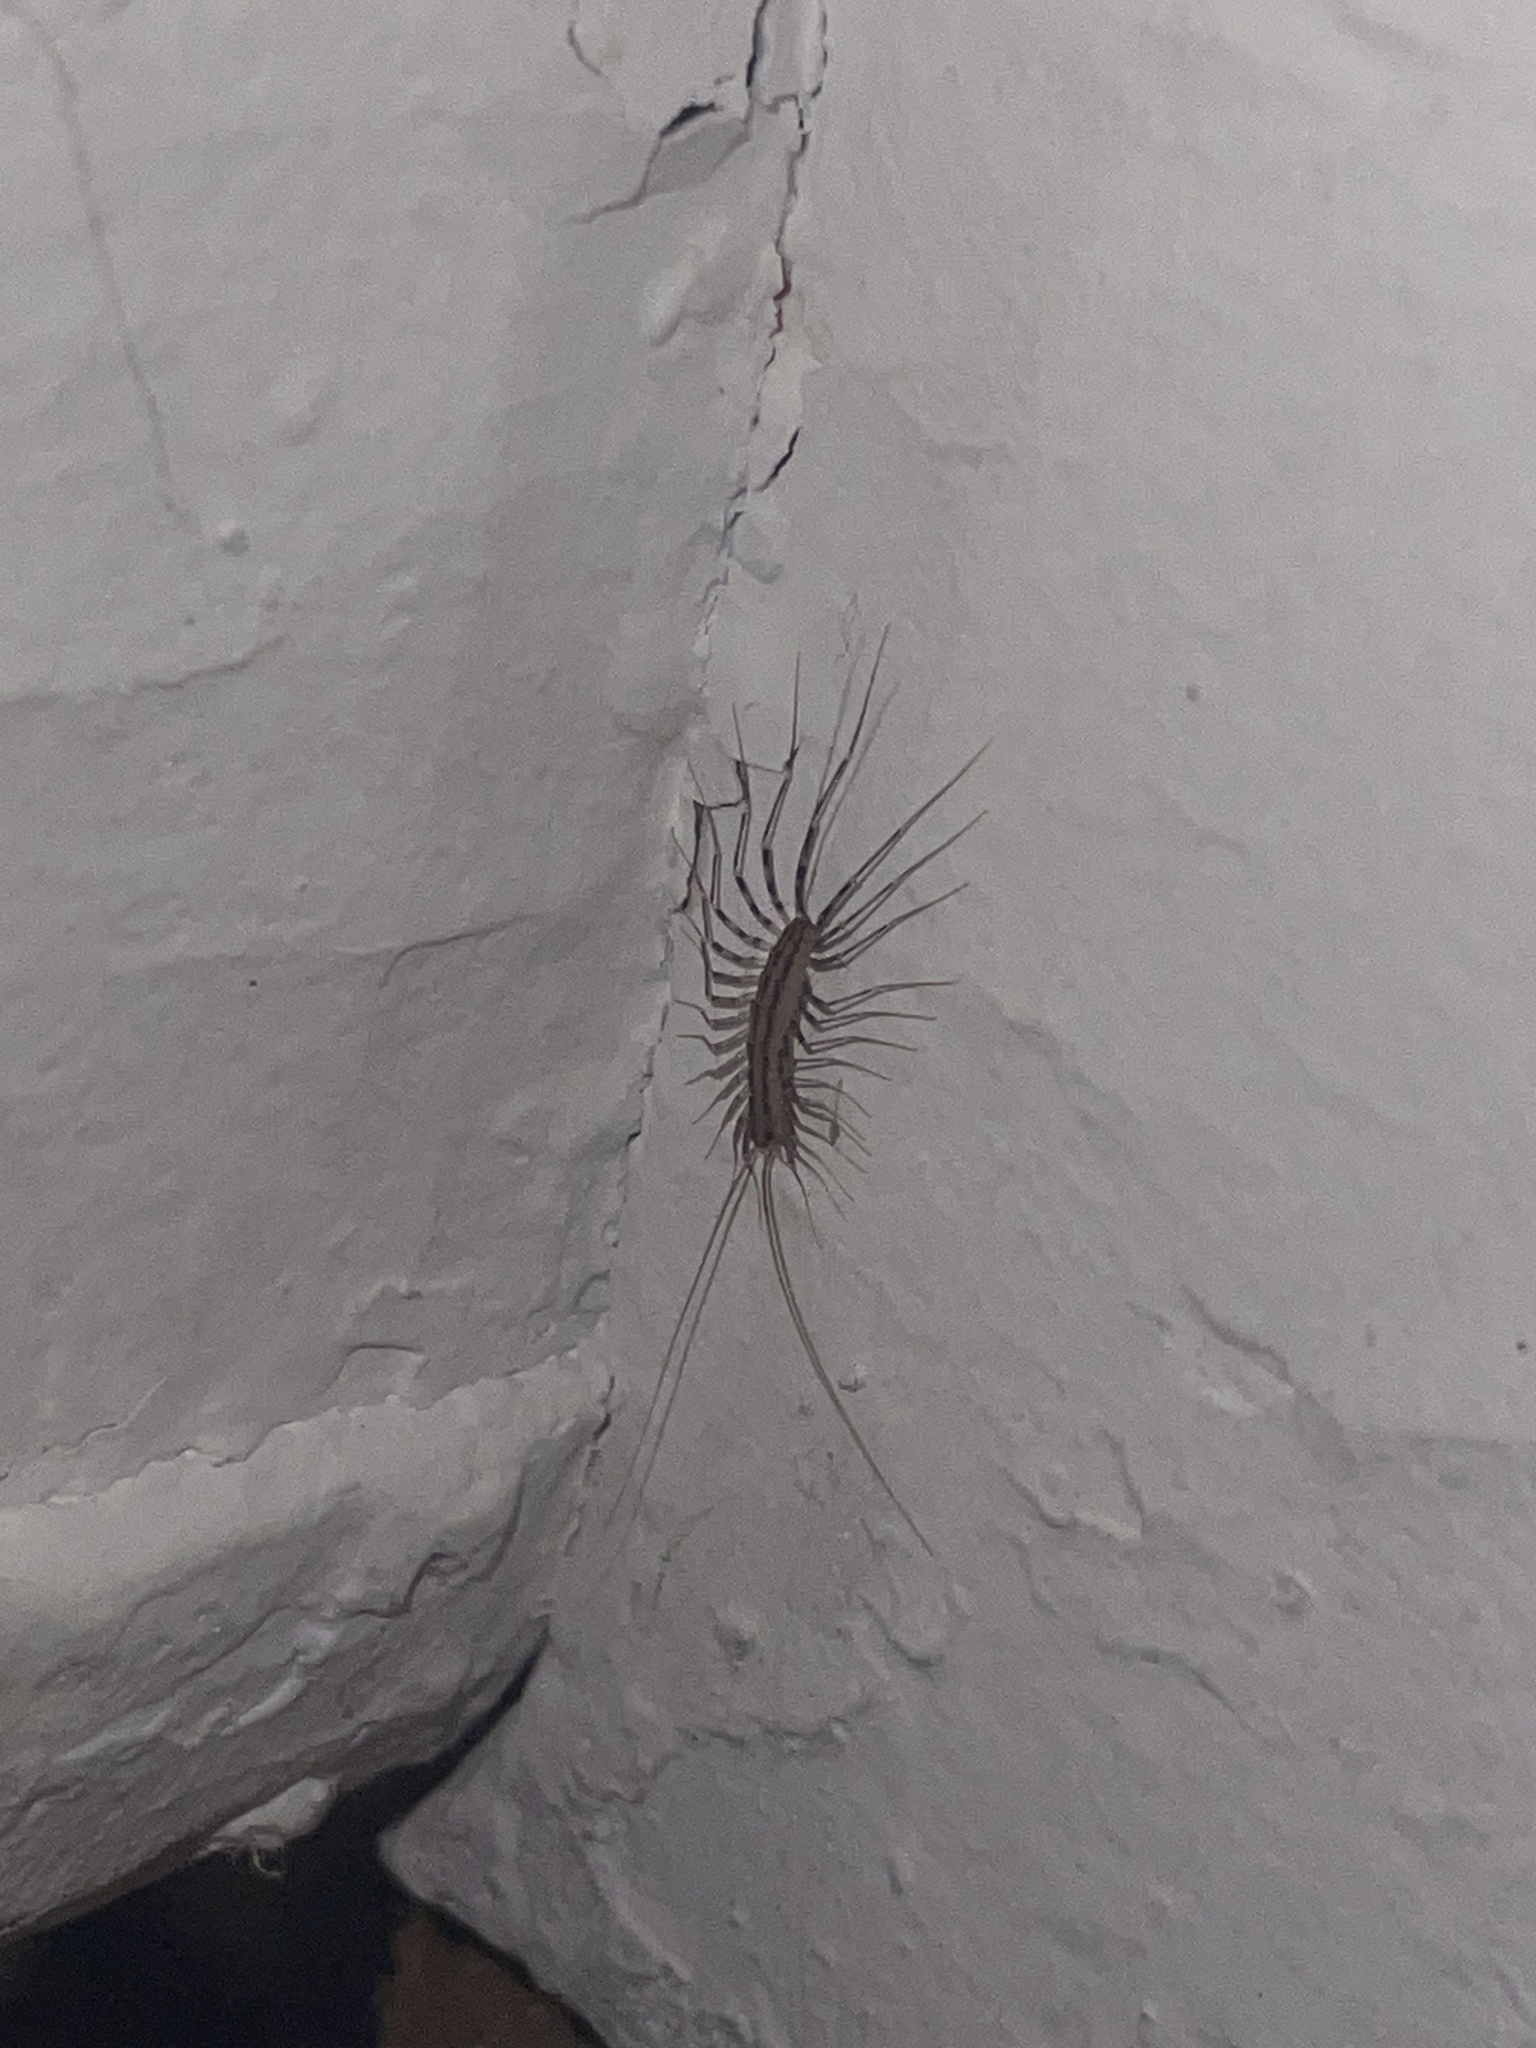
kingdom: Animalia
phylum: Arthropoda
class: Chilopoda
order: Scutigeromorpha
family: Scutigeridae
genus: Scutigera
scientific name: Scutigera coleoptrata
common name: House centipede
